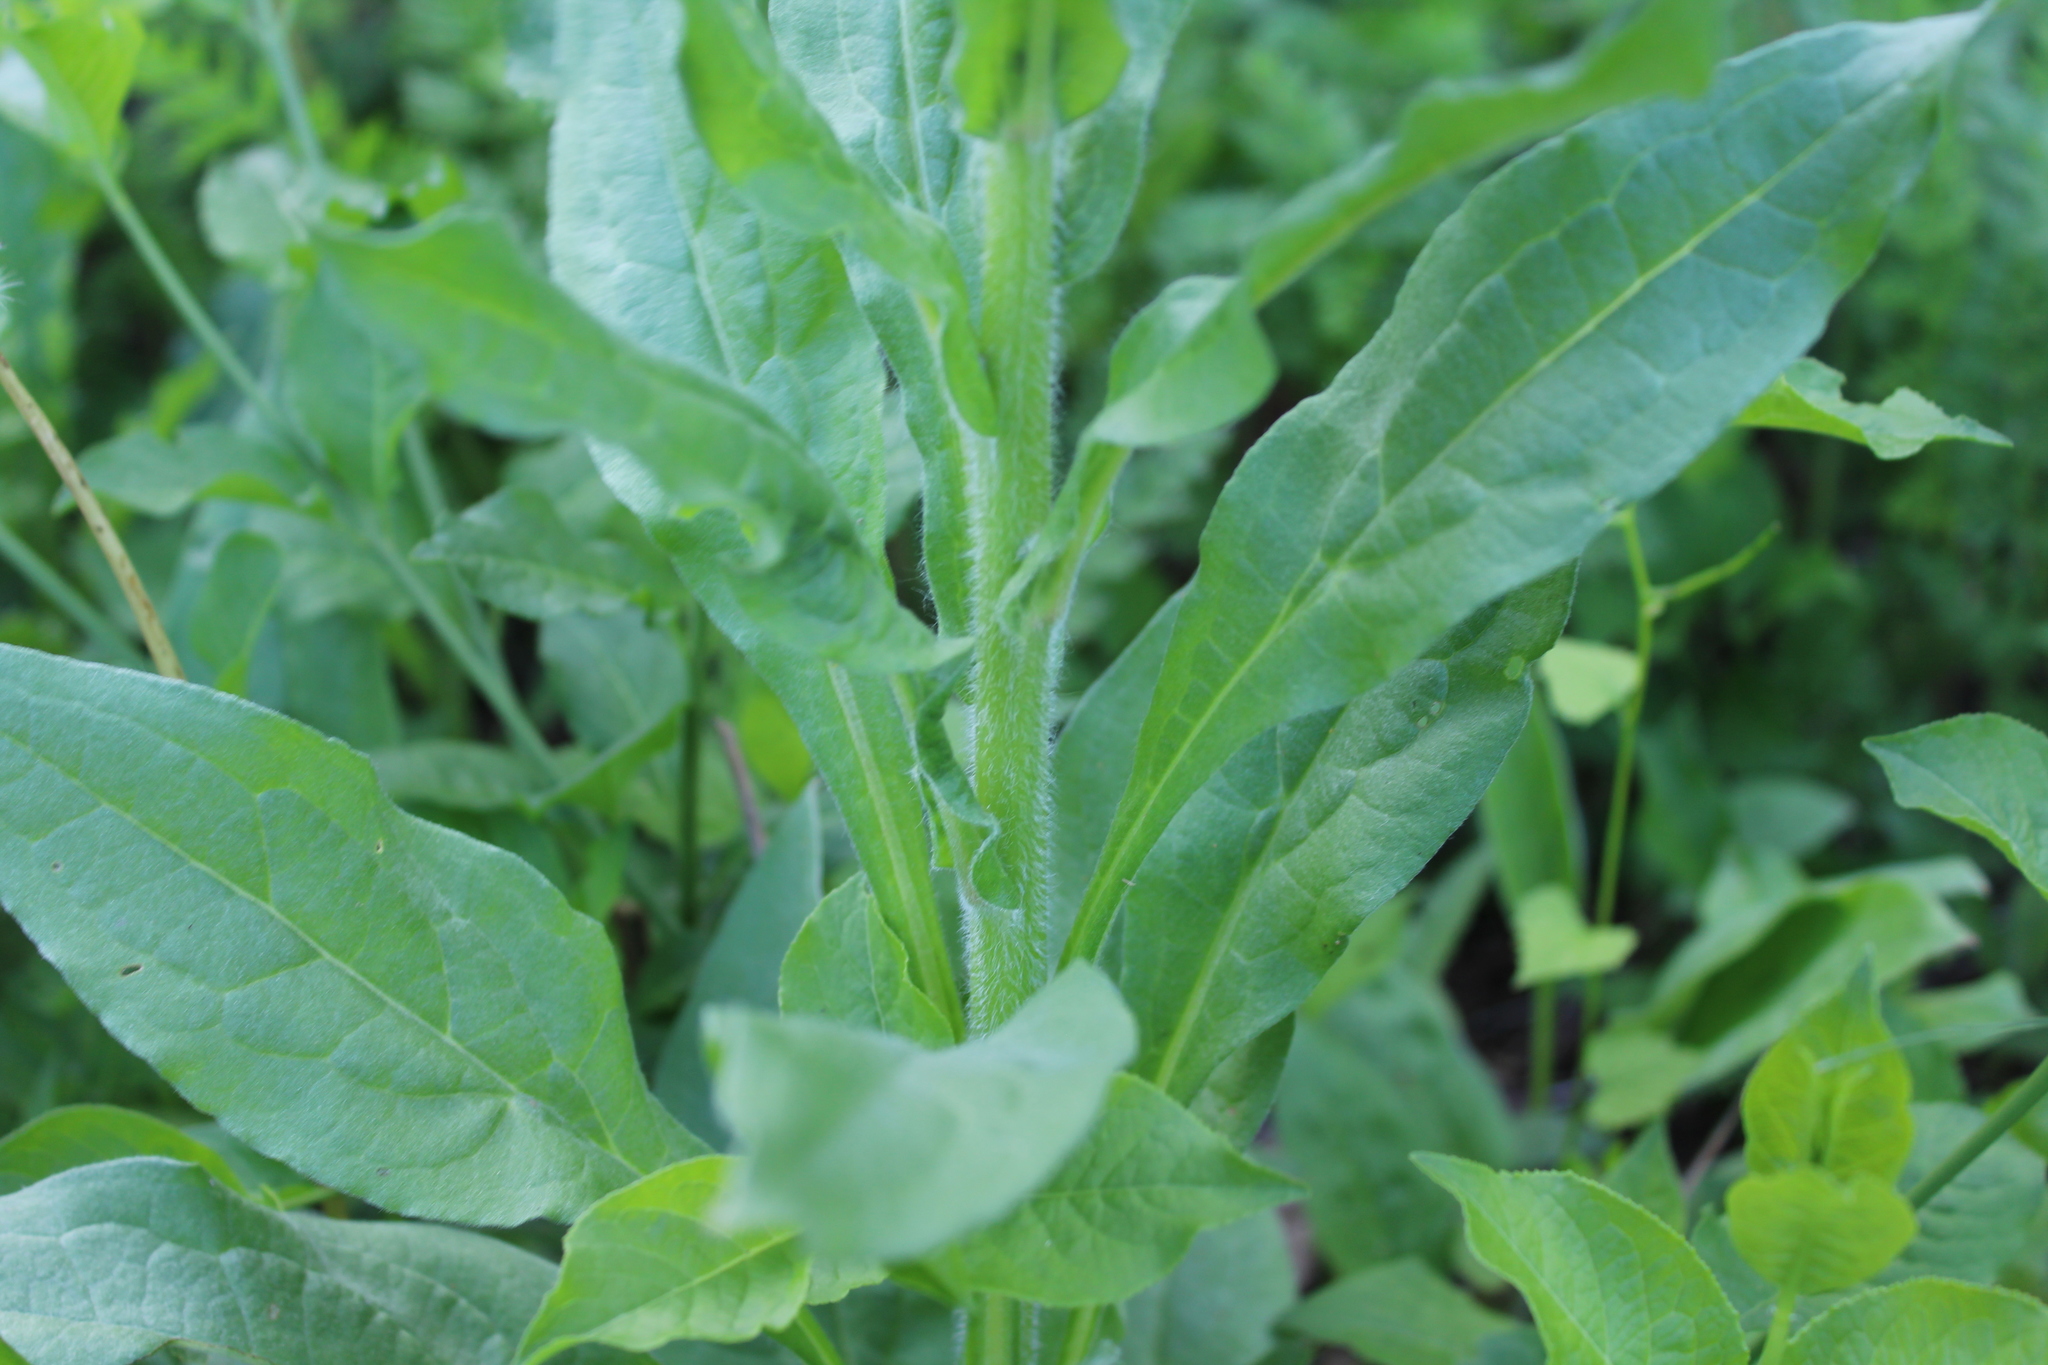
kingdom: Plantae
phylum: Tracheophyta
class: Magnoliopsida
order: Boraginales
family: Boraginaceae
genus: Cynoglossum
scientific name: Cynoglossum officinale
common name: Hound's-tongue
